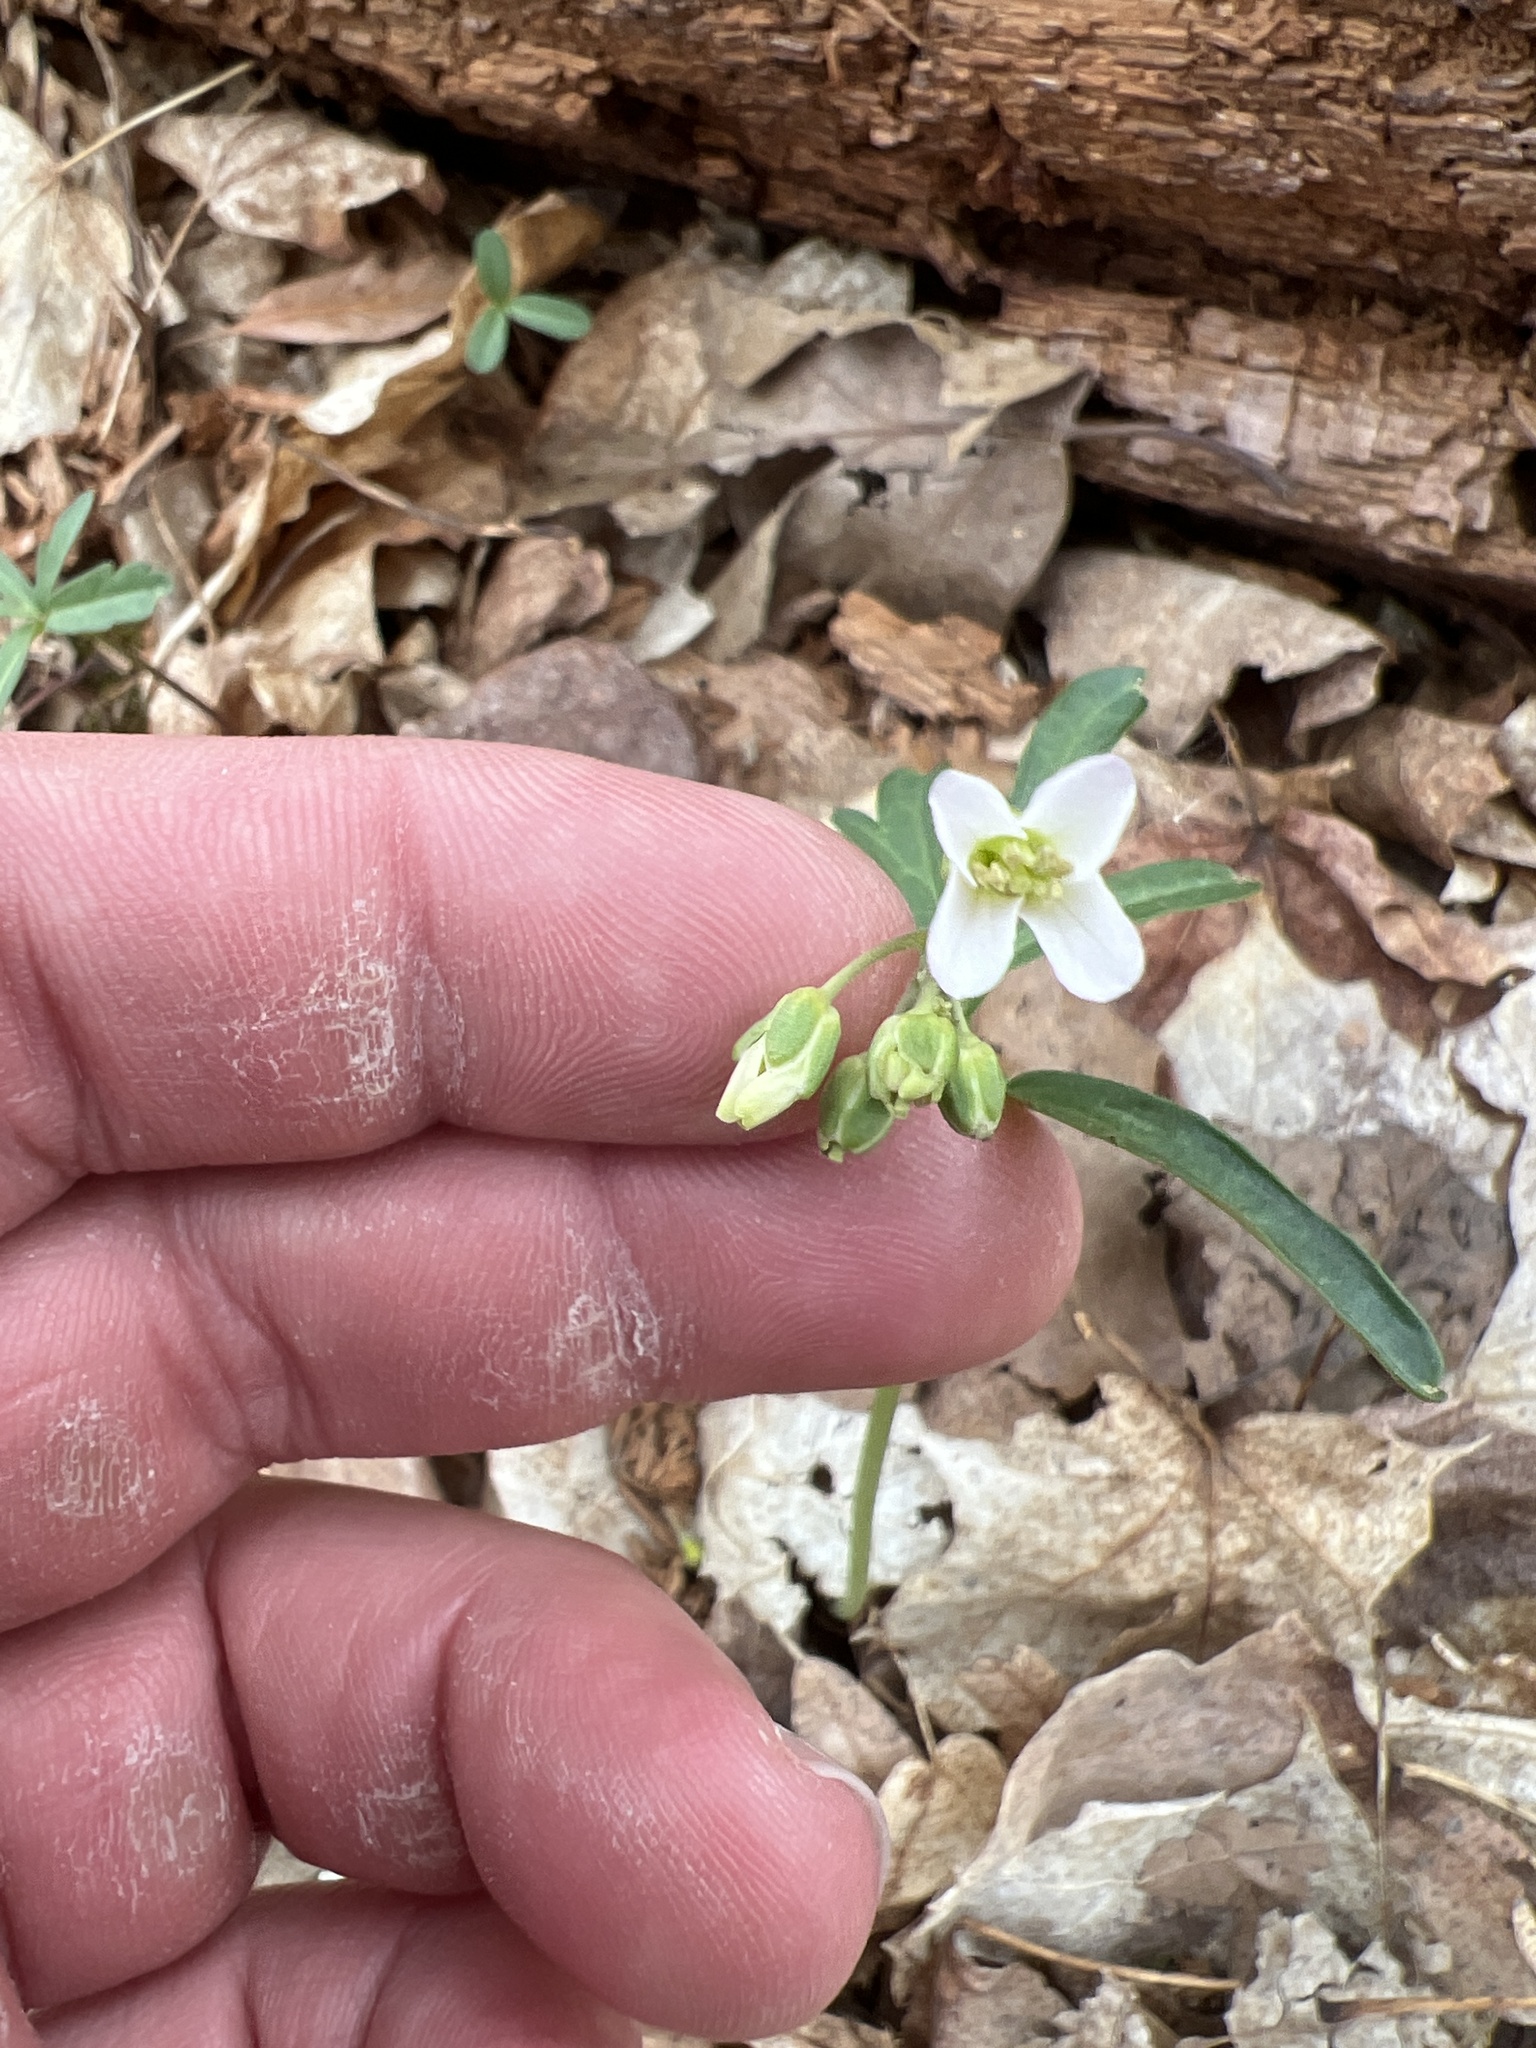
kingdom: Plantae
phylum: Tracheophyta
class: Magnoliopsida
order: Brassicales
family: Brassicaceae
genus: Cardamine
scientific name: Cardamine concatenata
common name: Cut-leaf toothcup
